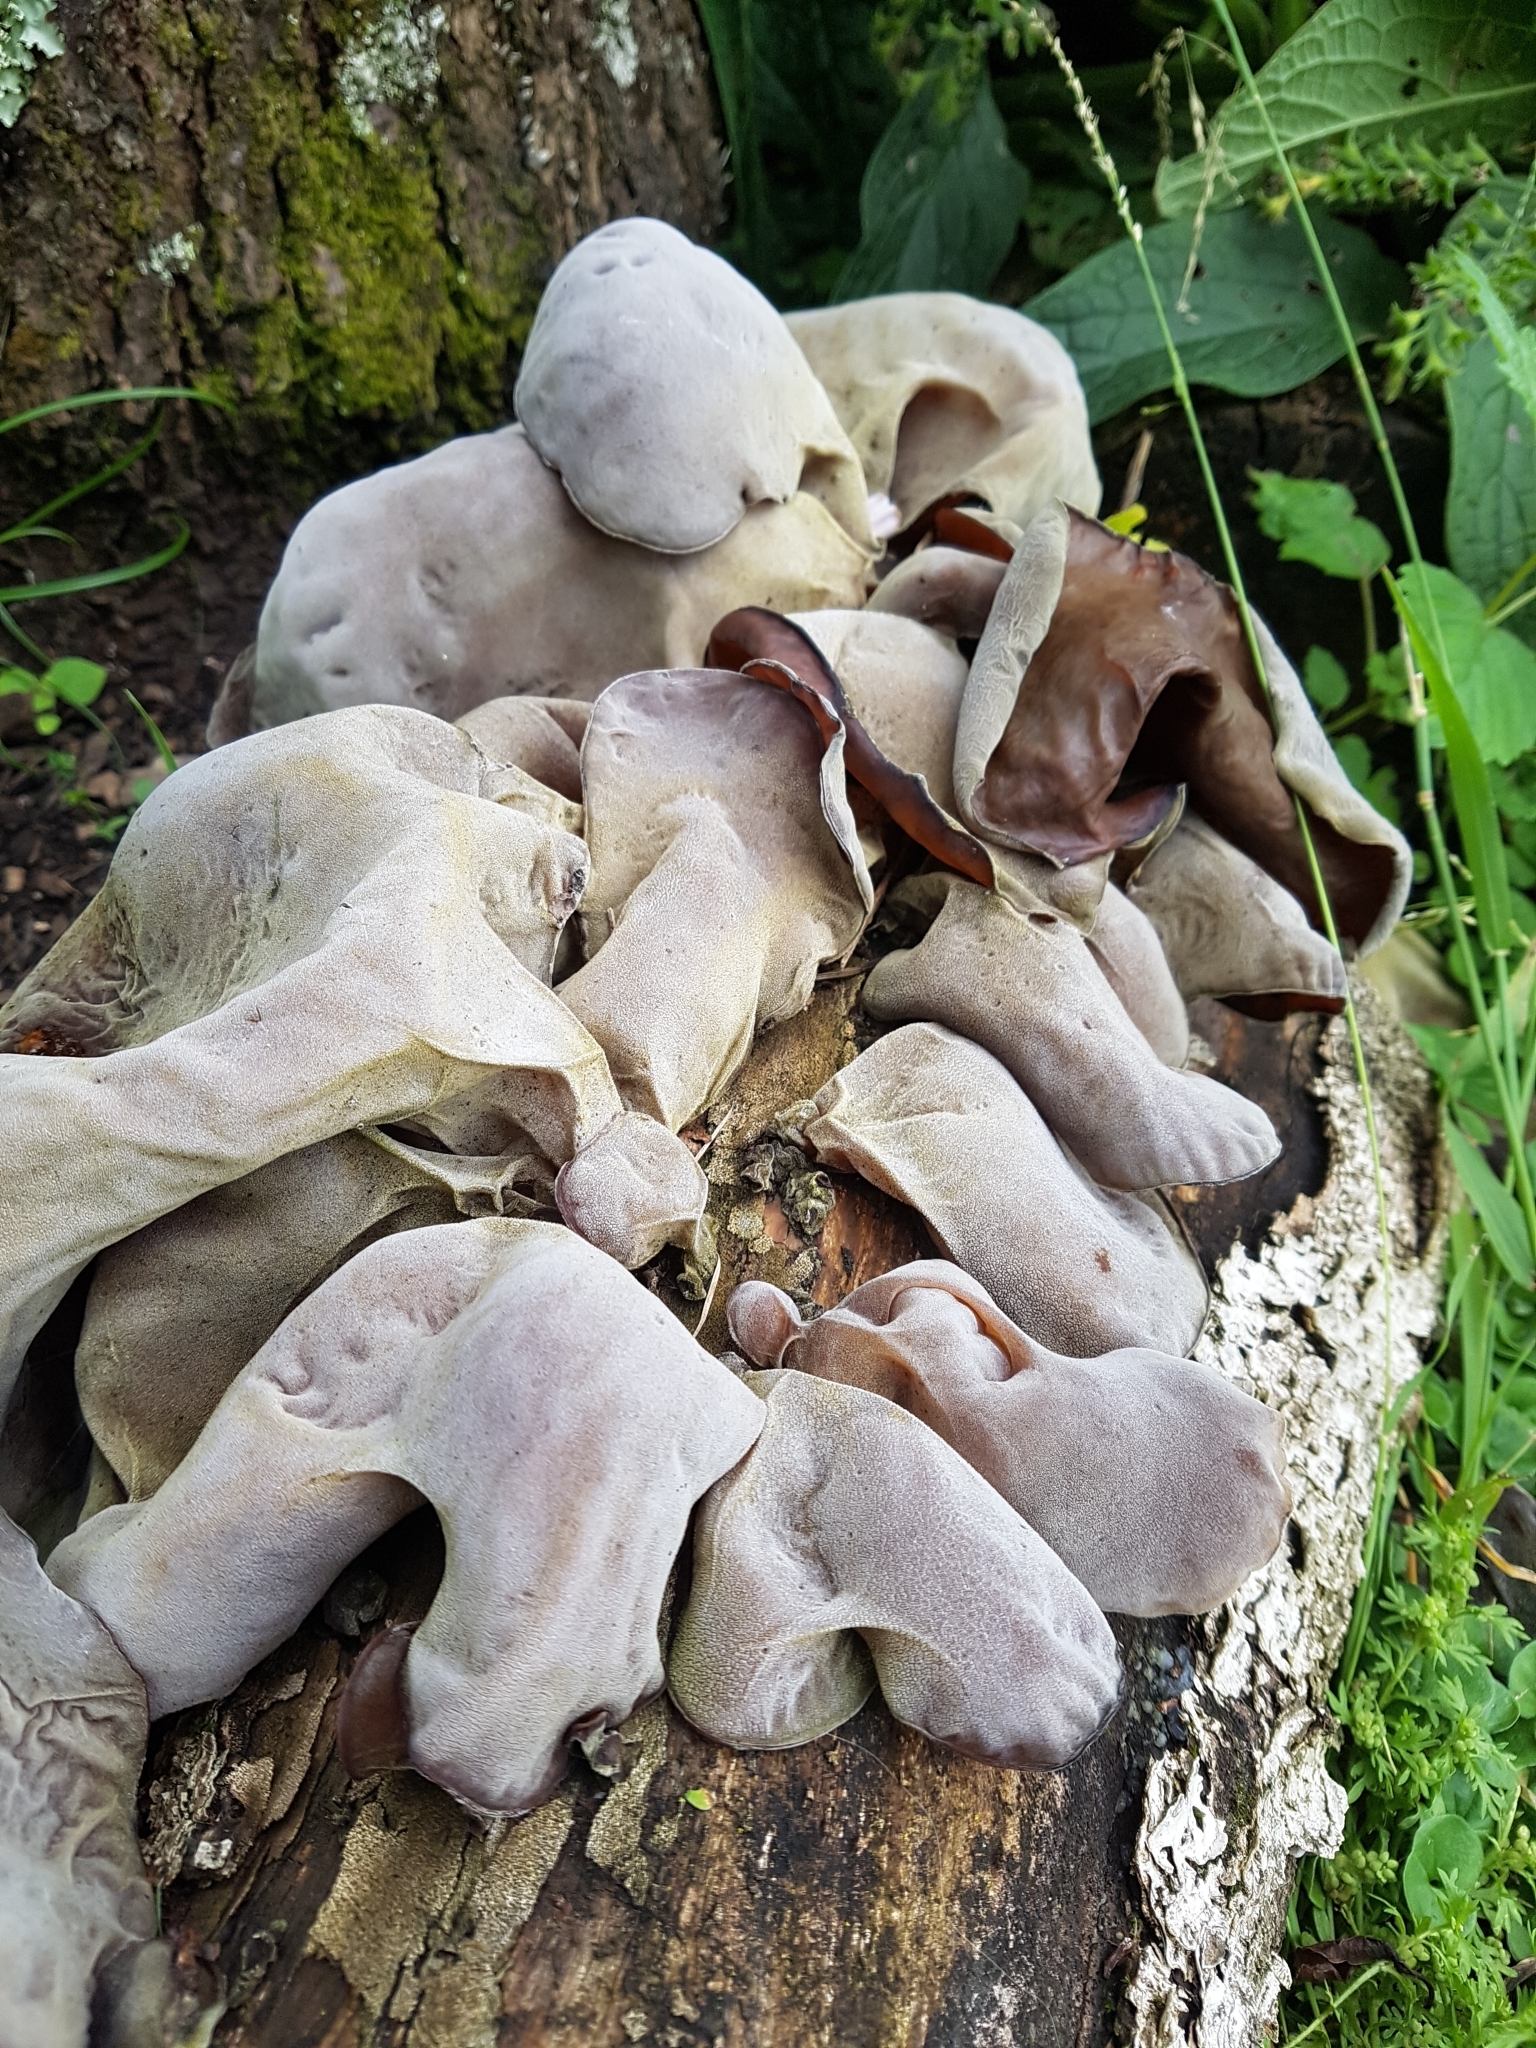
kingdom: Fungi
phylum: Basidiomycota
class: Agaricomycetes
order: Auriculariales
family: Auriculariaceae
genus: Auricularia
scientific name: Auricularia cornea
